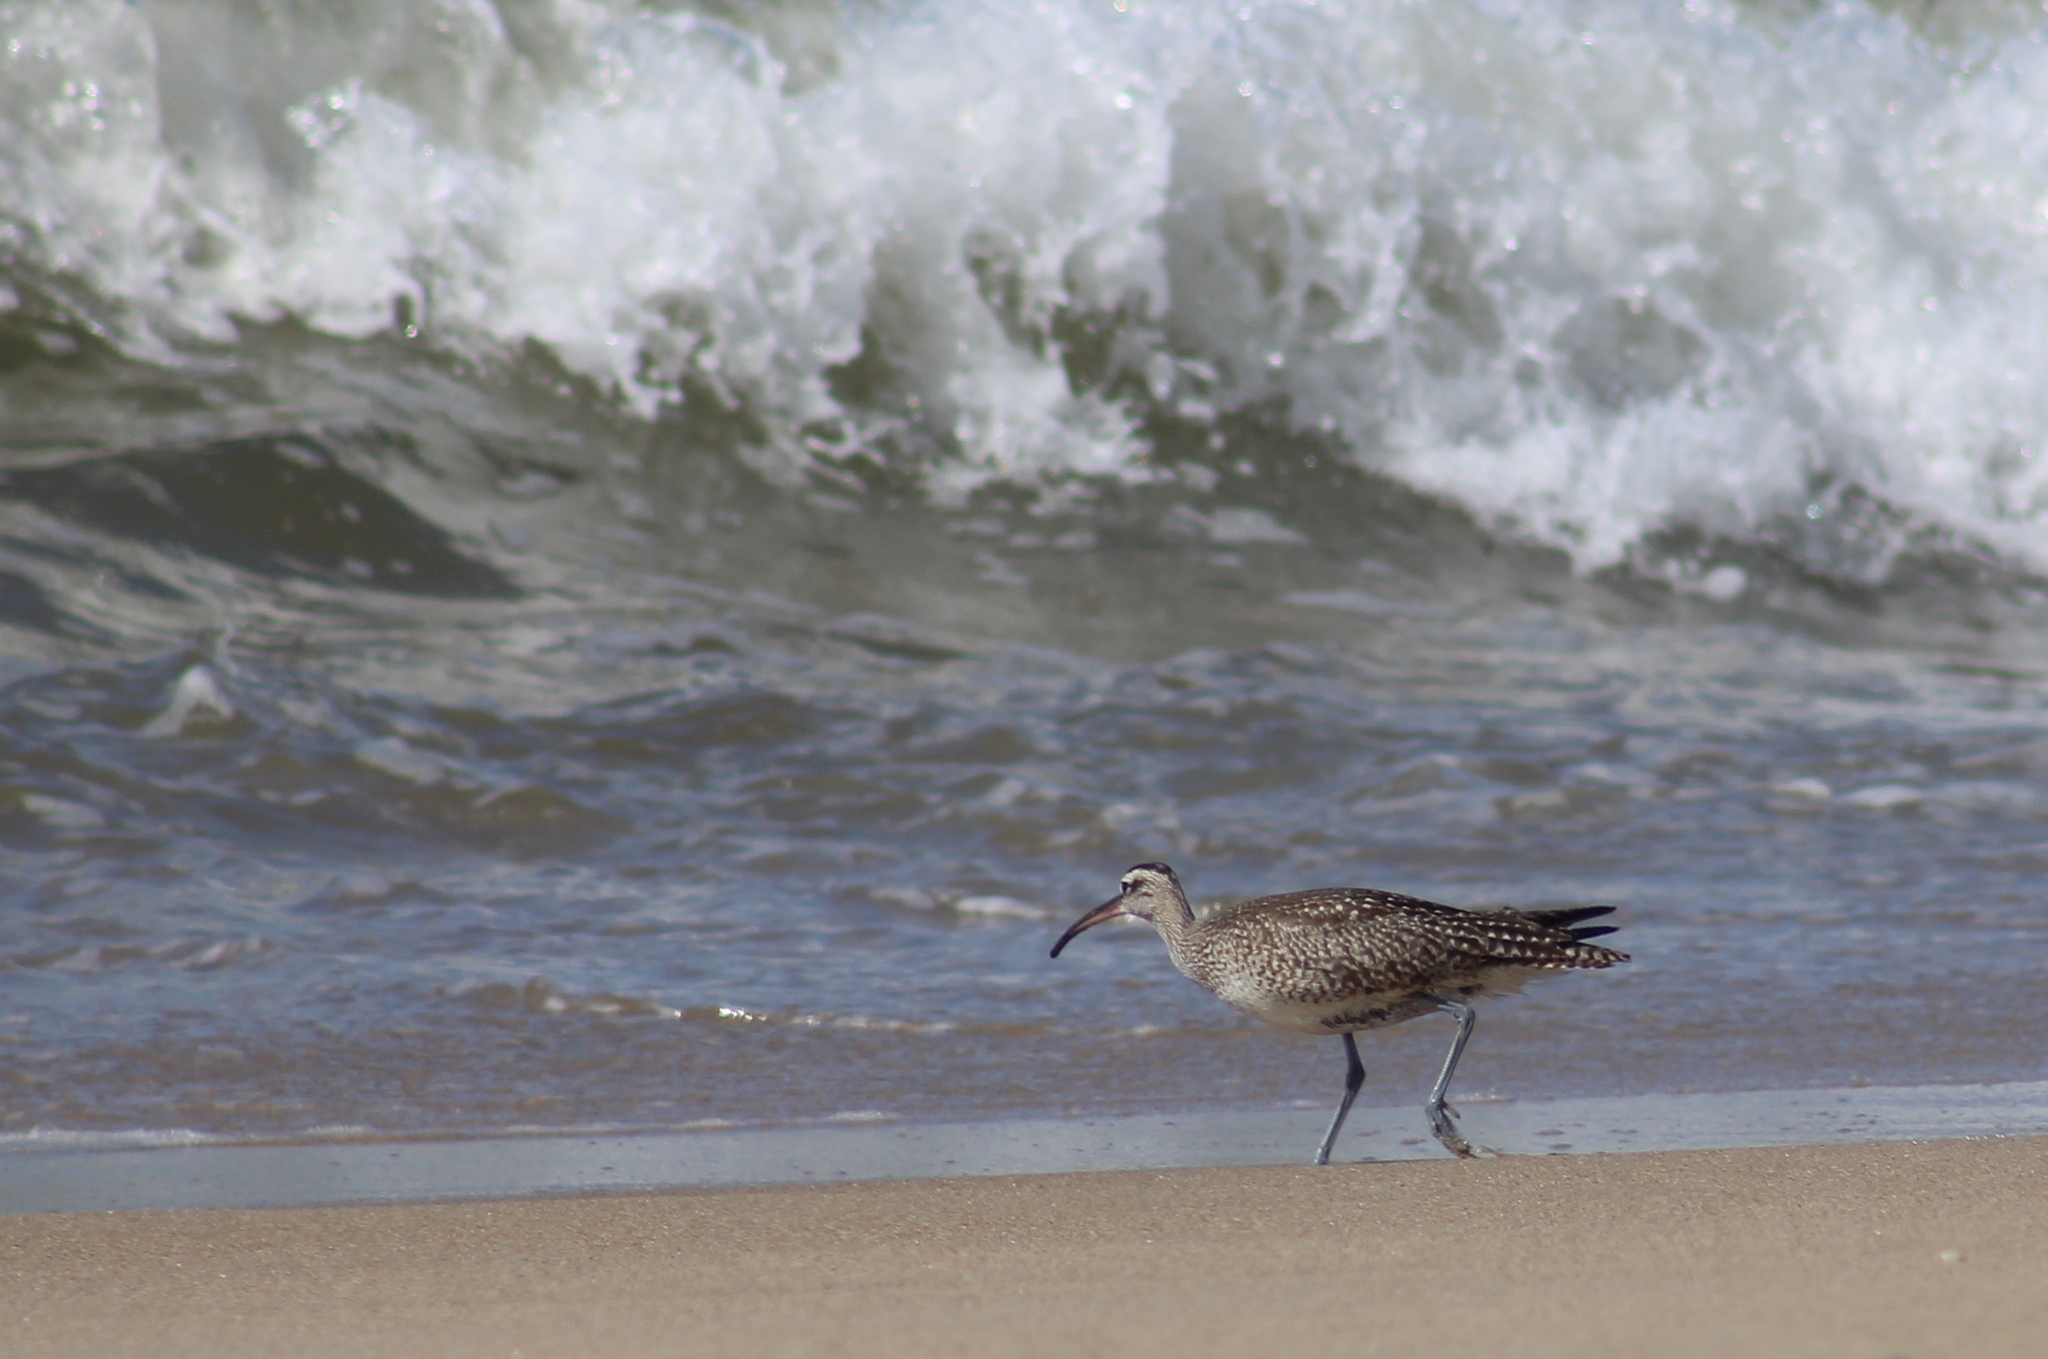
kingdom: Animalia
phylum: Chordata
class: Aves
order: Charadriiformes
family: Scolopacidae
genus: Numenius
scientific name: Numenius phaeopus
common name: Whimbrel
